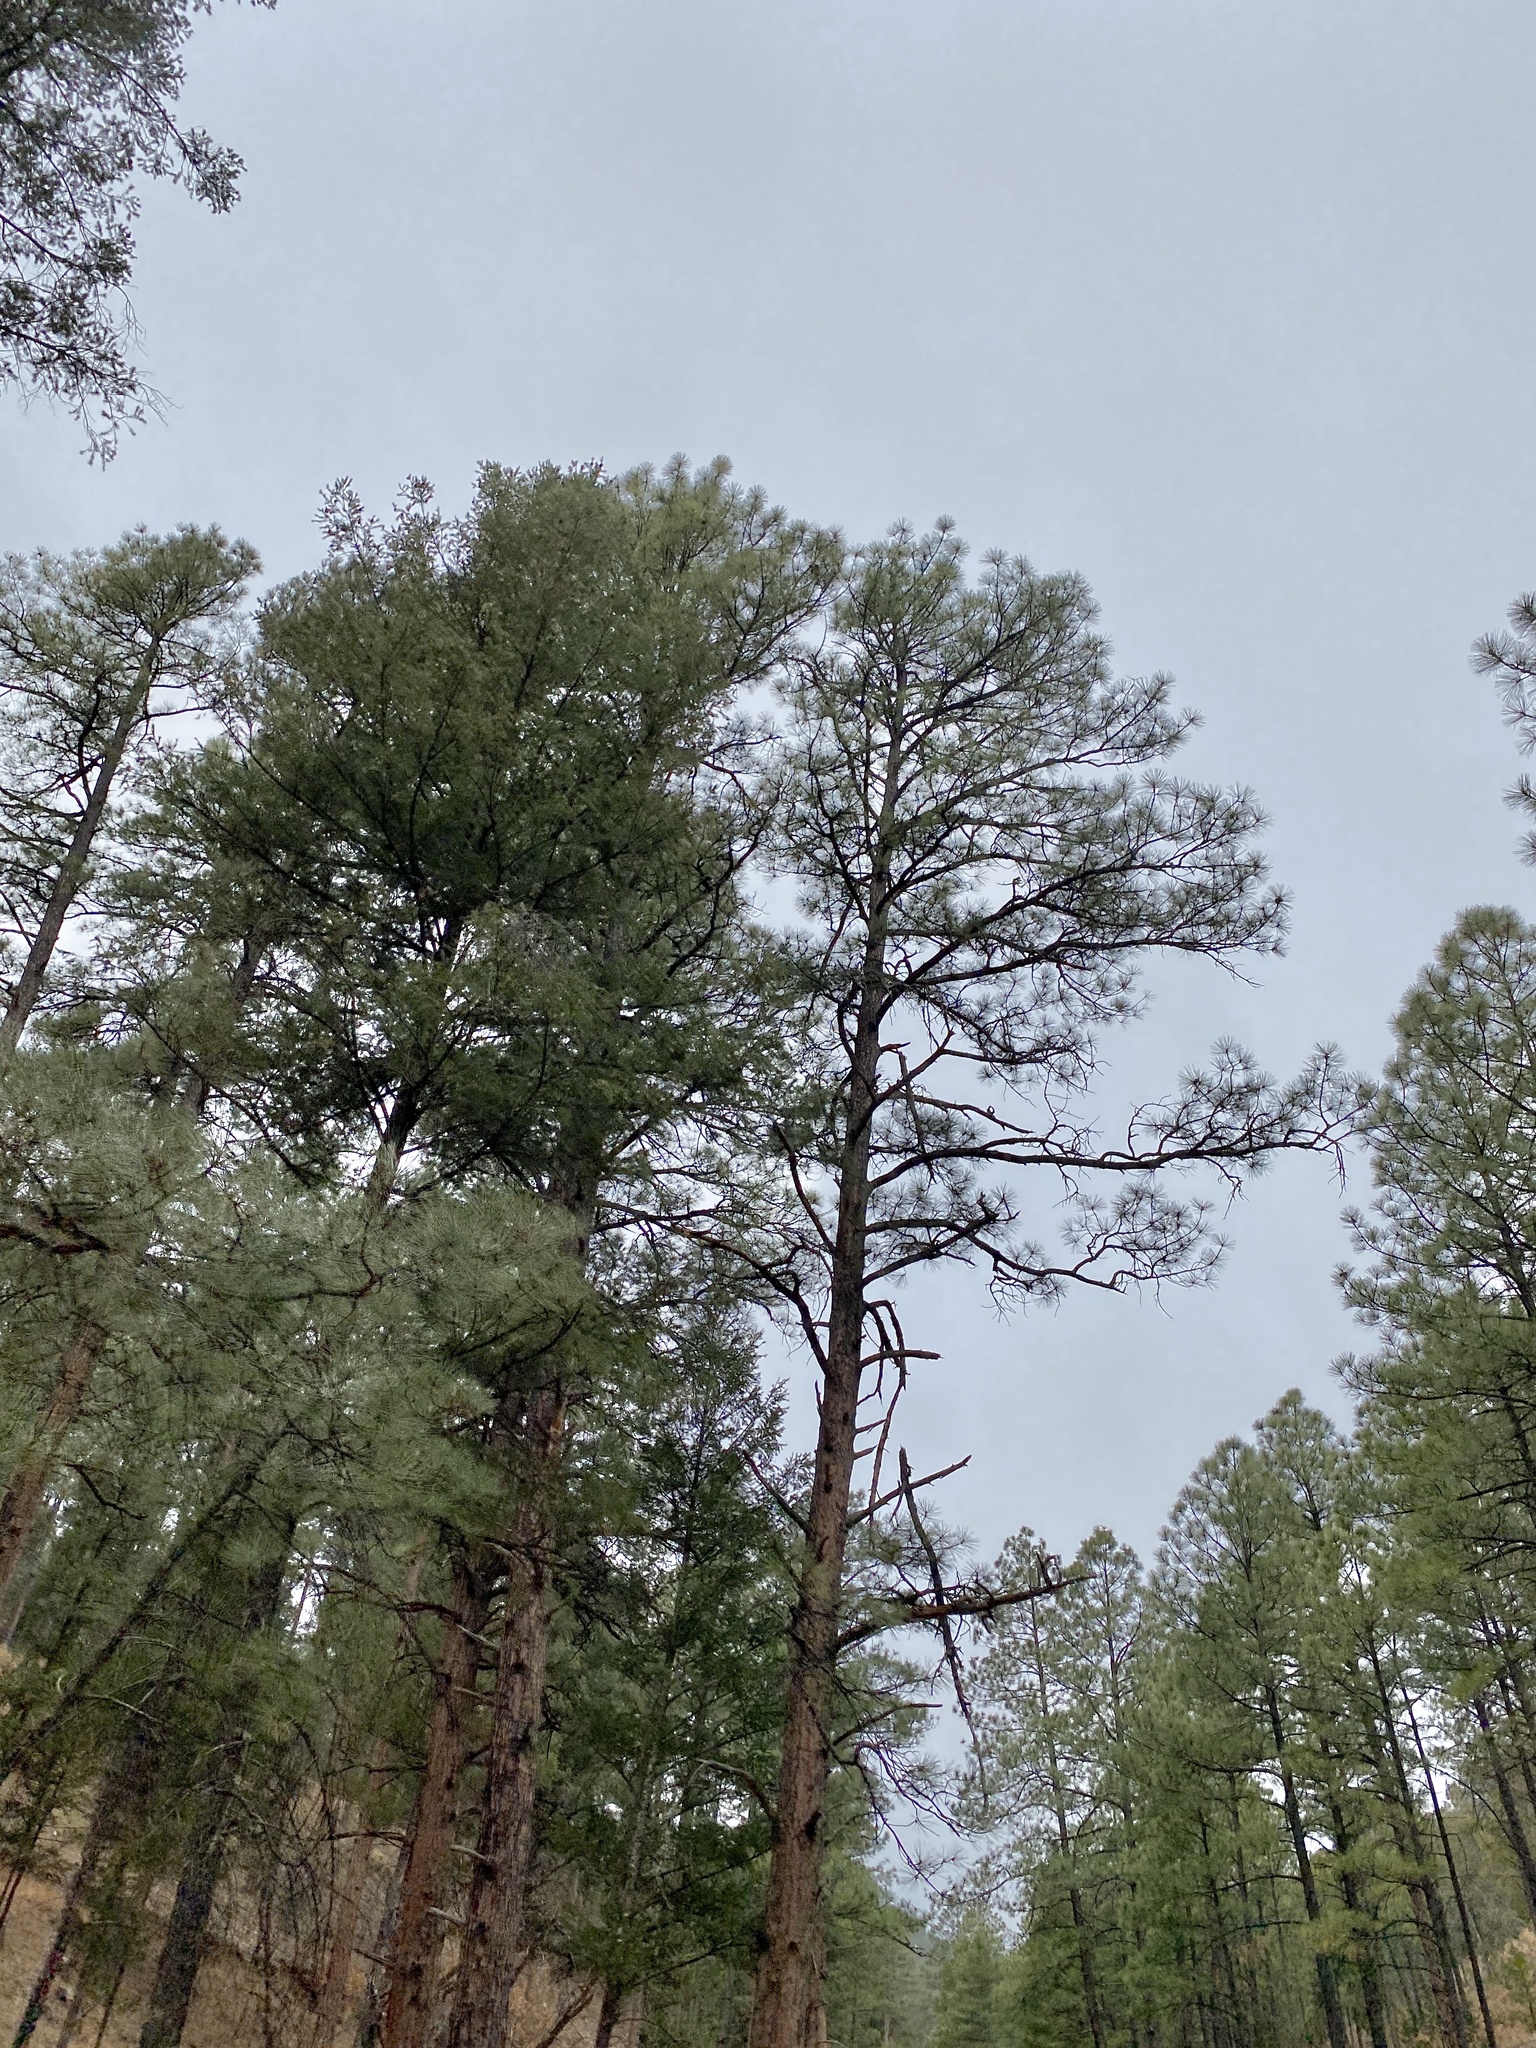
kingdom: Plantae
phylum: Tracheophyta
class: Pinopsida
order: Pinales
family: Pinaceae
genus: Pinus
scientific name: Pinus ponderosa
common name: Western yellow-pine
